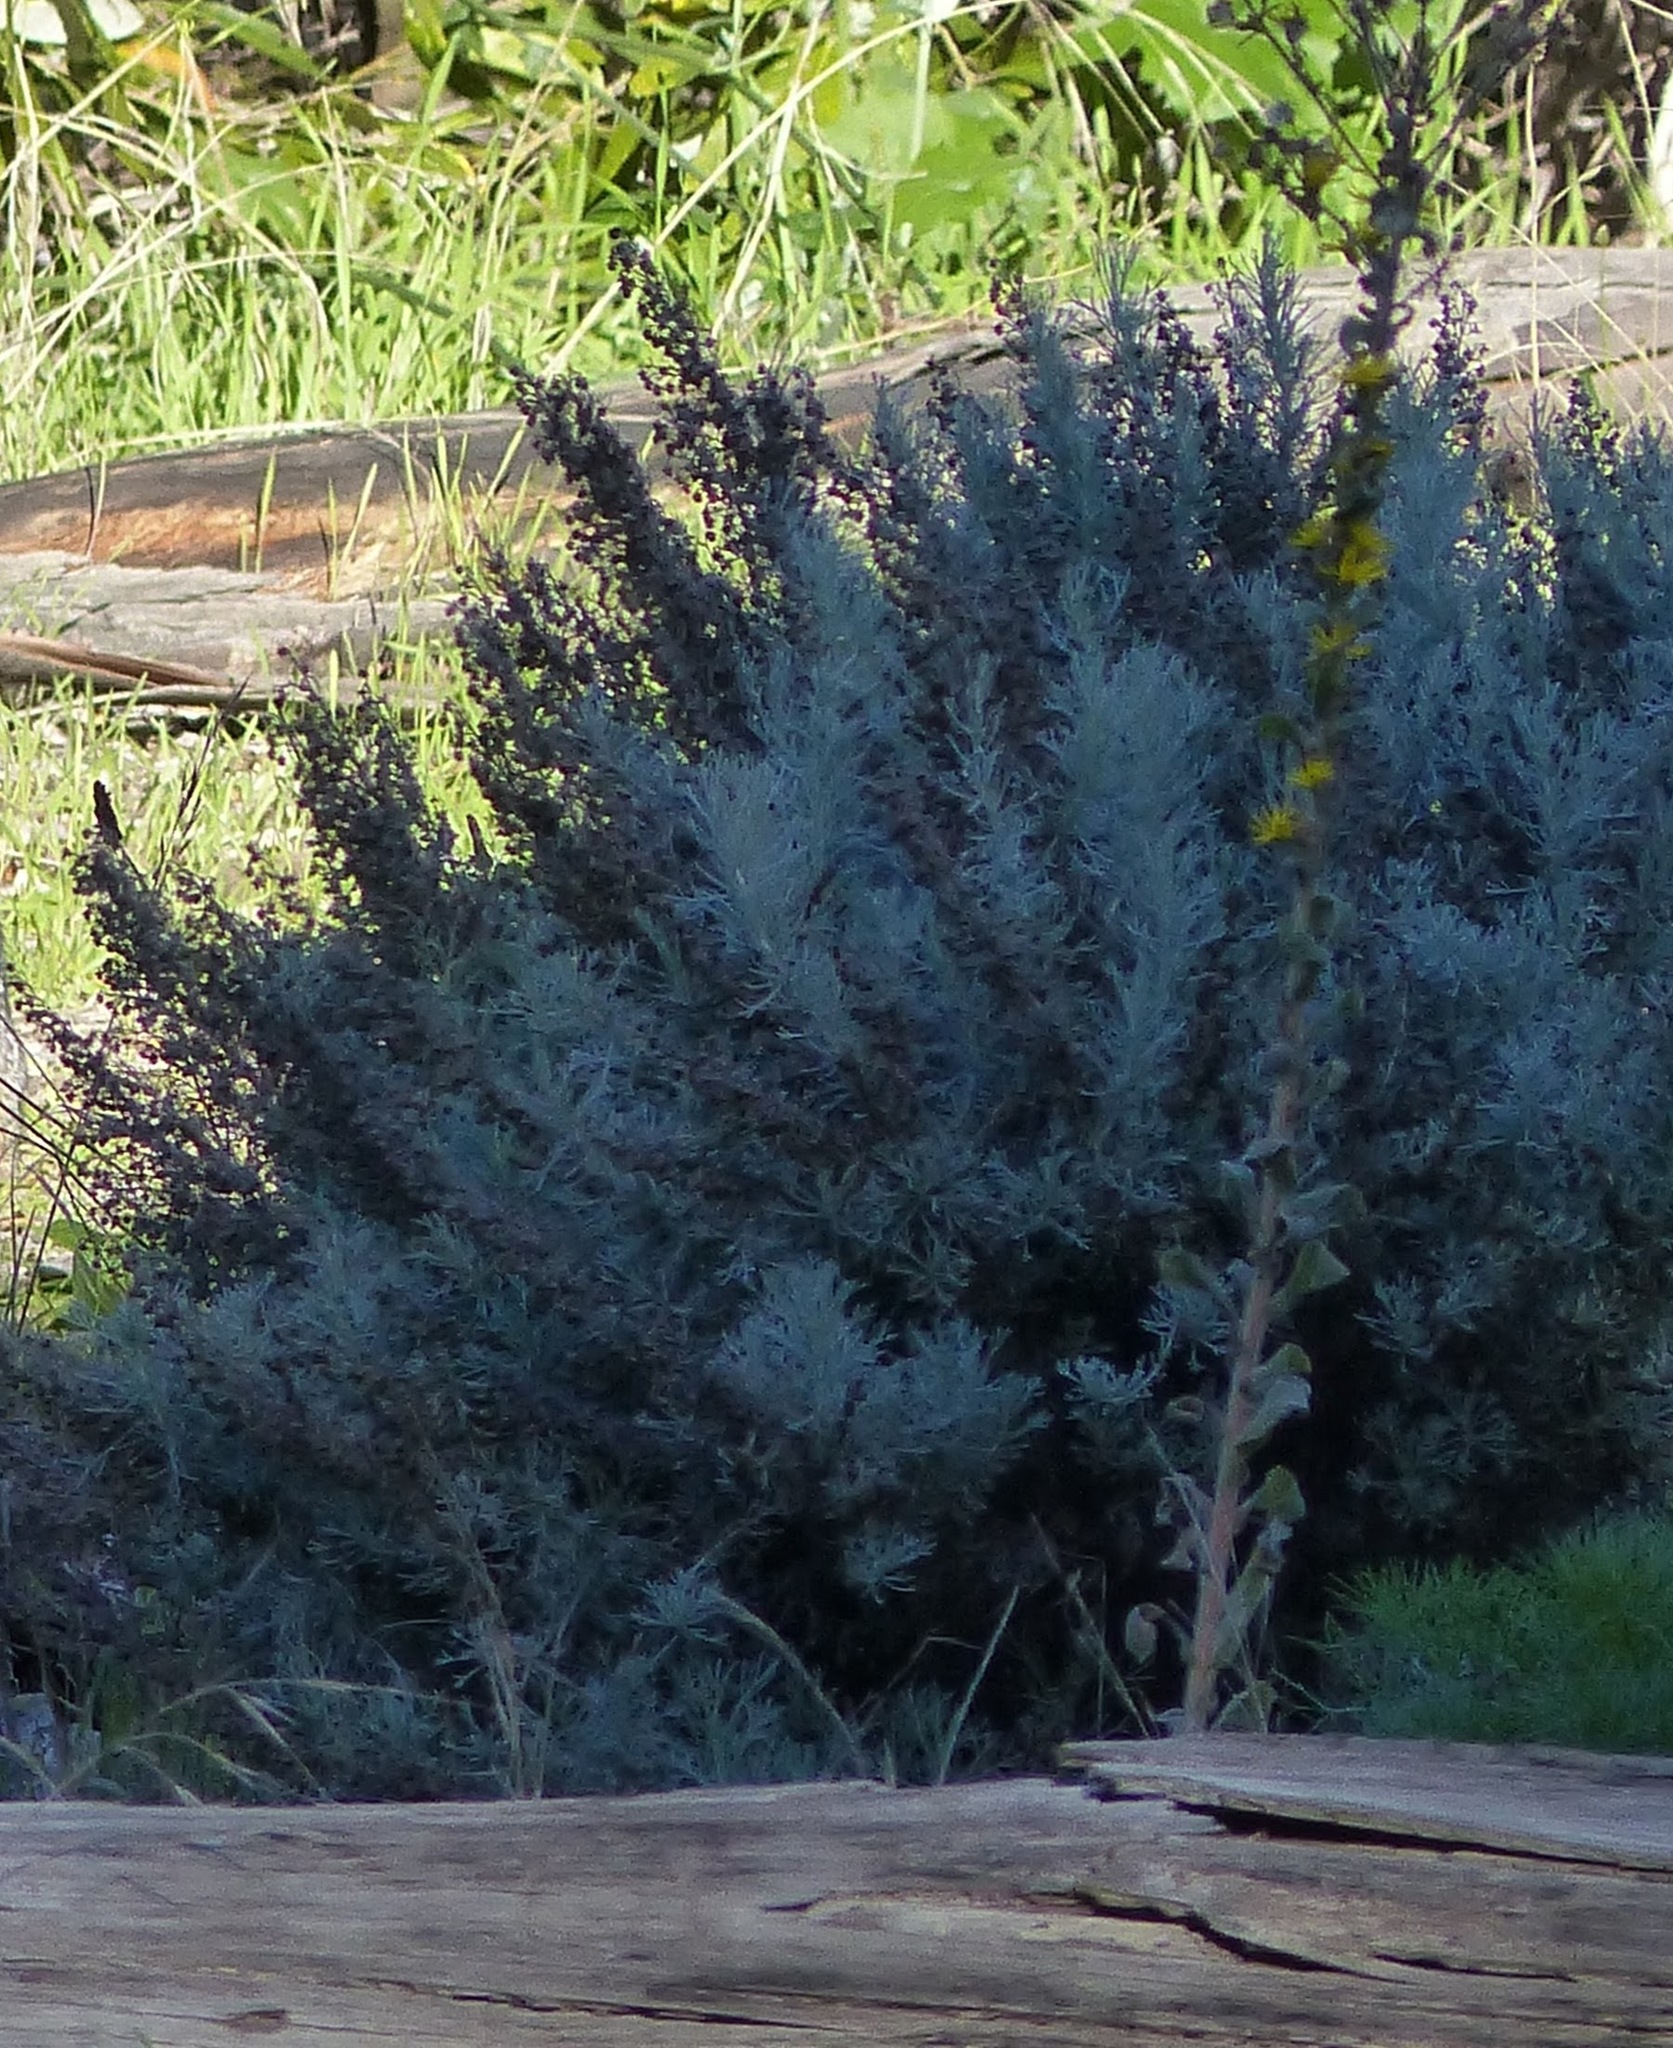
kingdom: Plantae
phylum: Tracheophyta
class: Magnoliopsida
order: Asterales
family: Asteraceae
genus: Artemisia
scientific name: Artemisia californica
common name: California sagebrush
